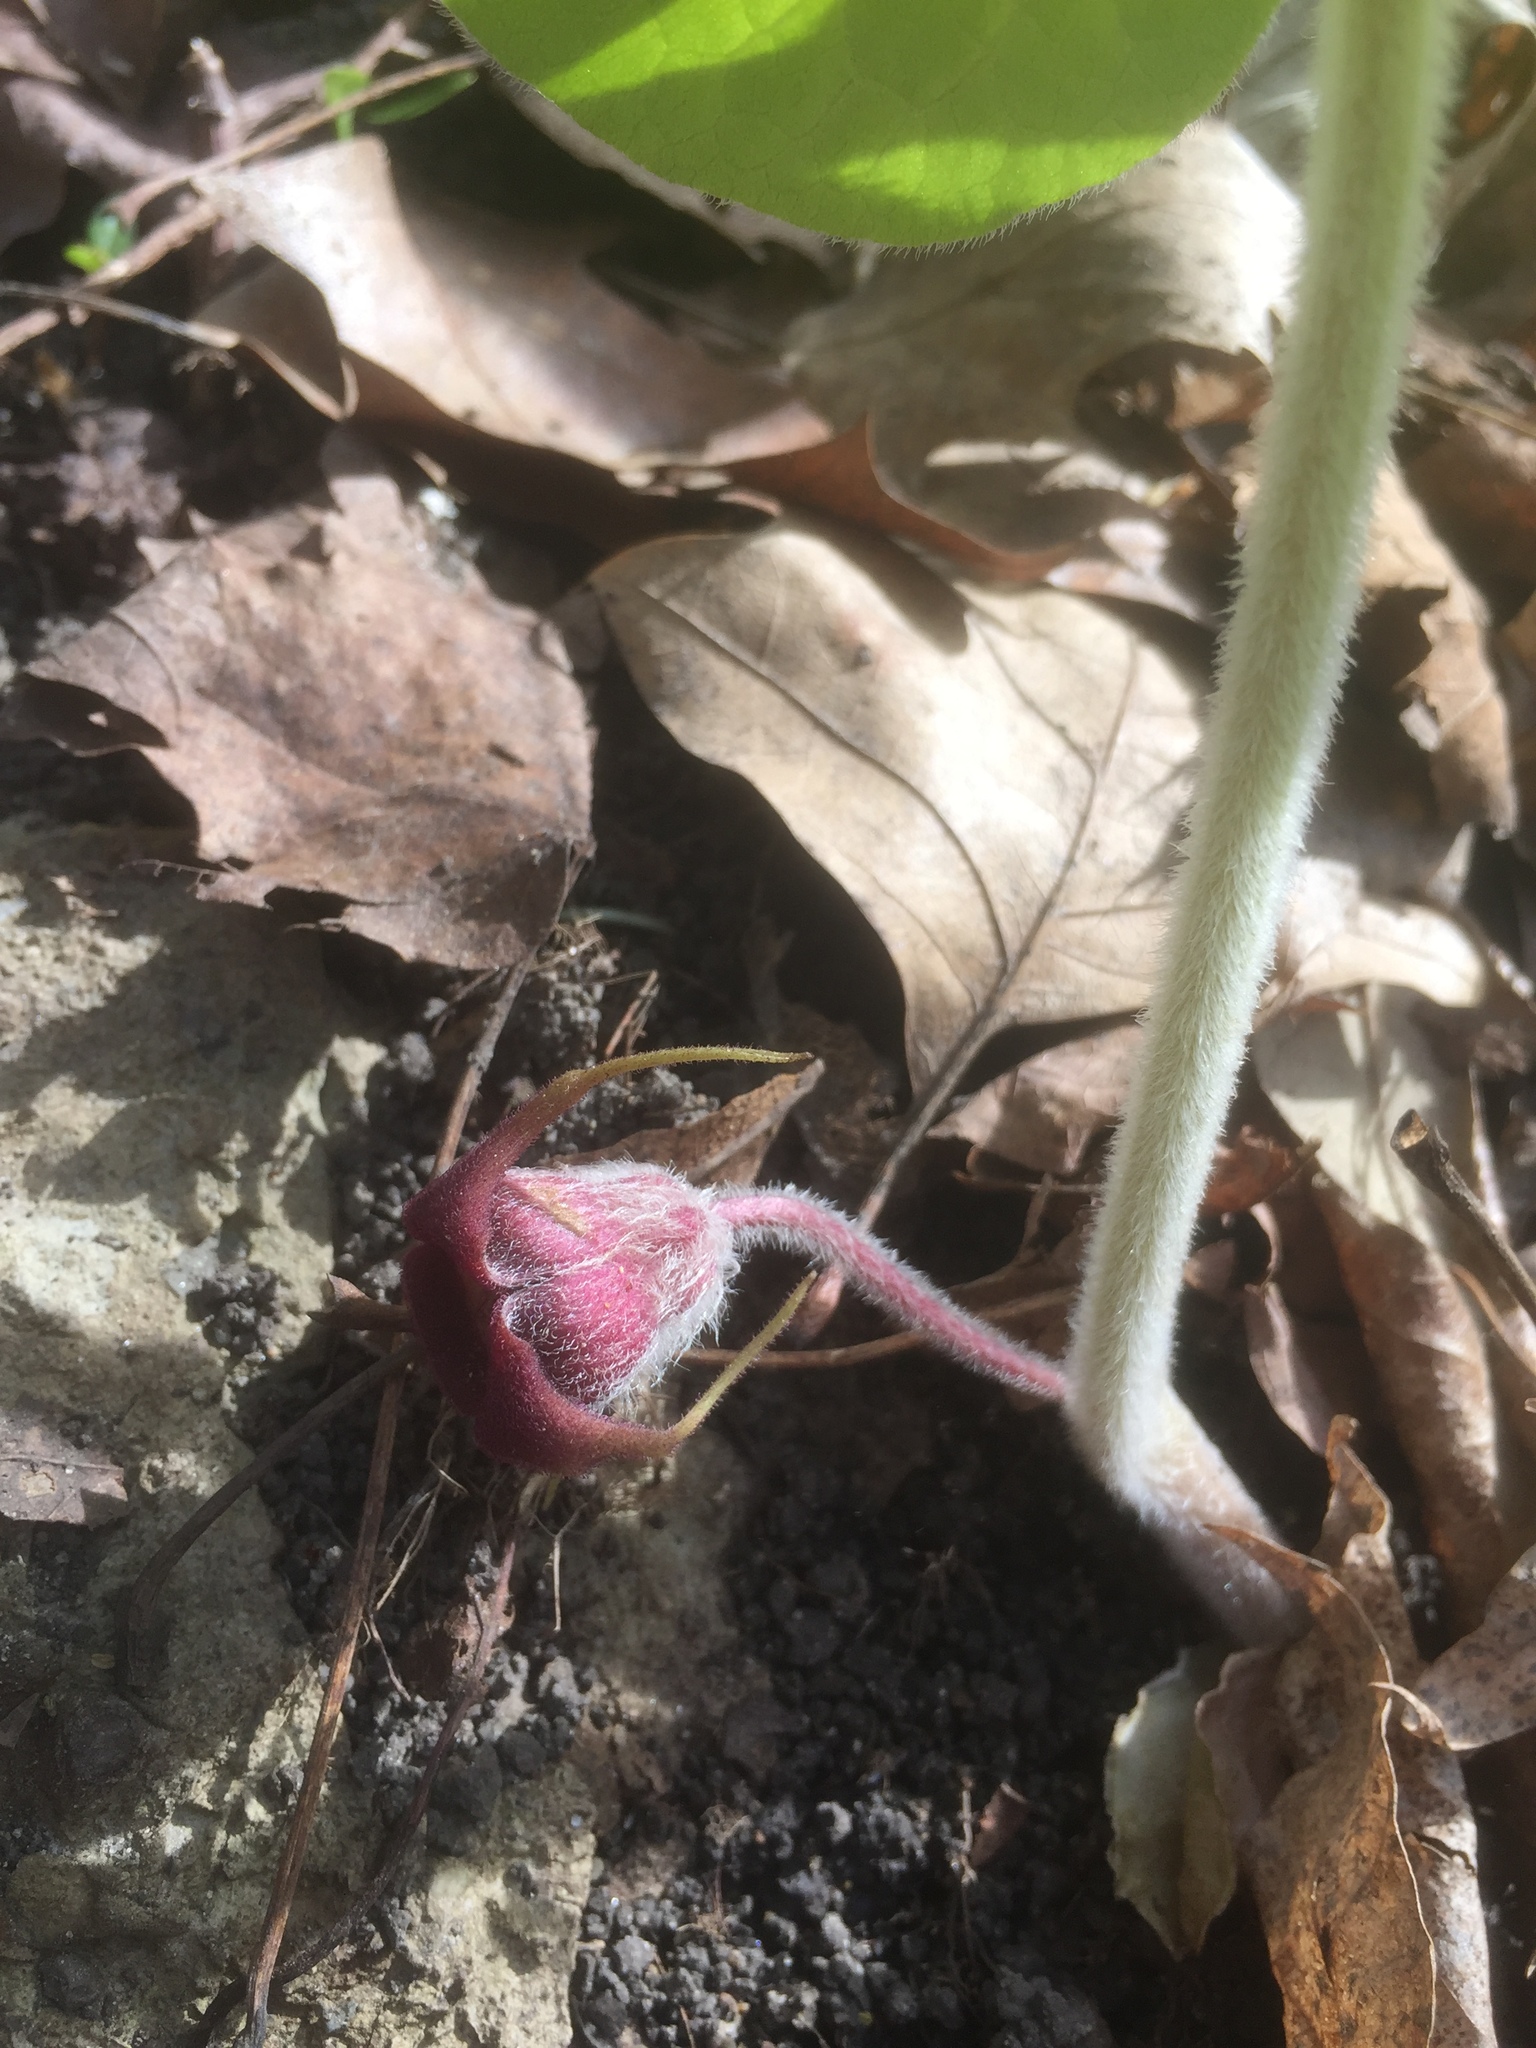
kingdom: Plantae
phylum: Tracheophyta
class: Magnoliopsida
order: Piperales
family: Aristolochiaceae
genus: Asarum
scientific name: Asarum canadense
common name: Wild ginger
